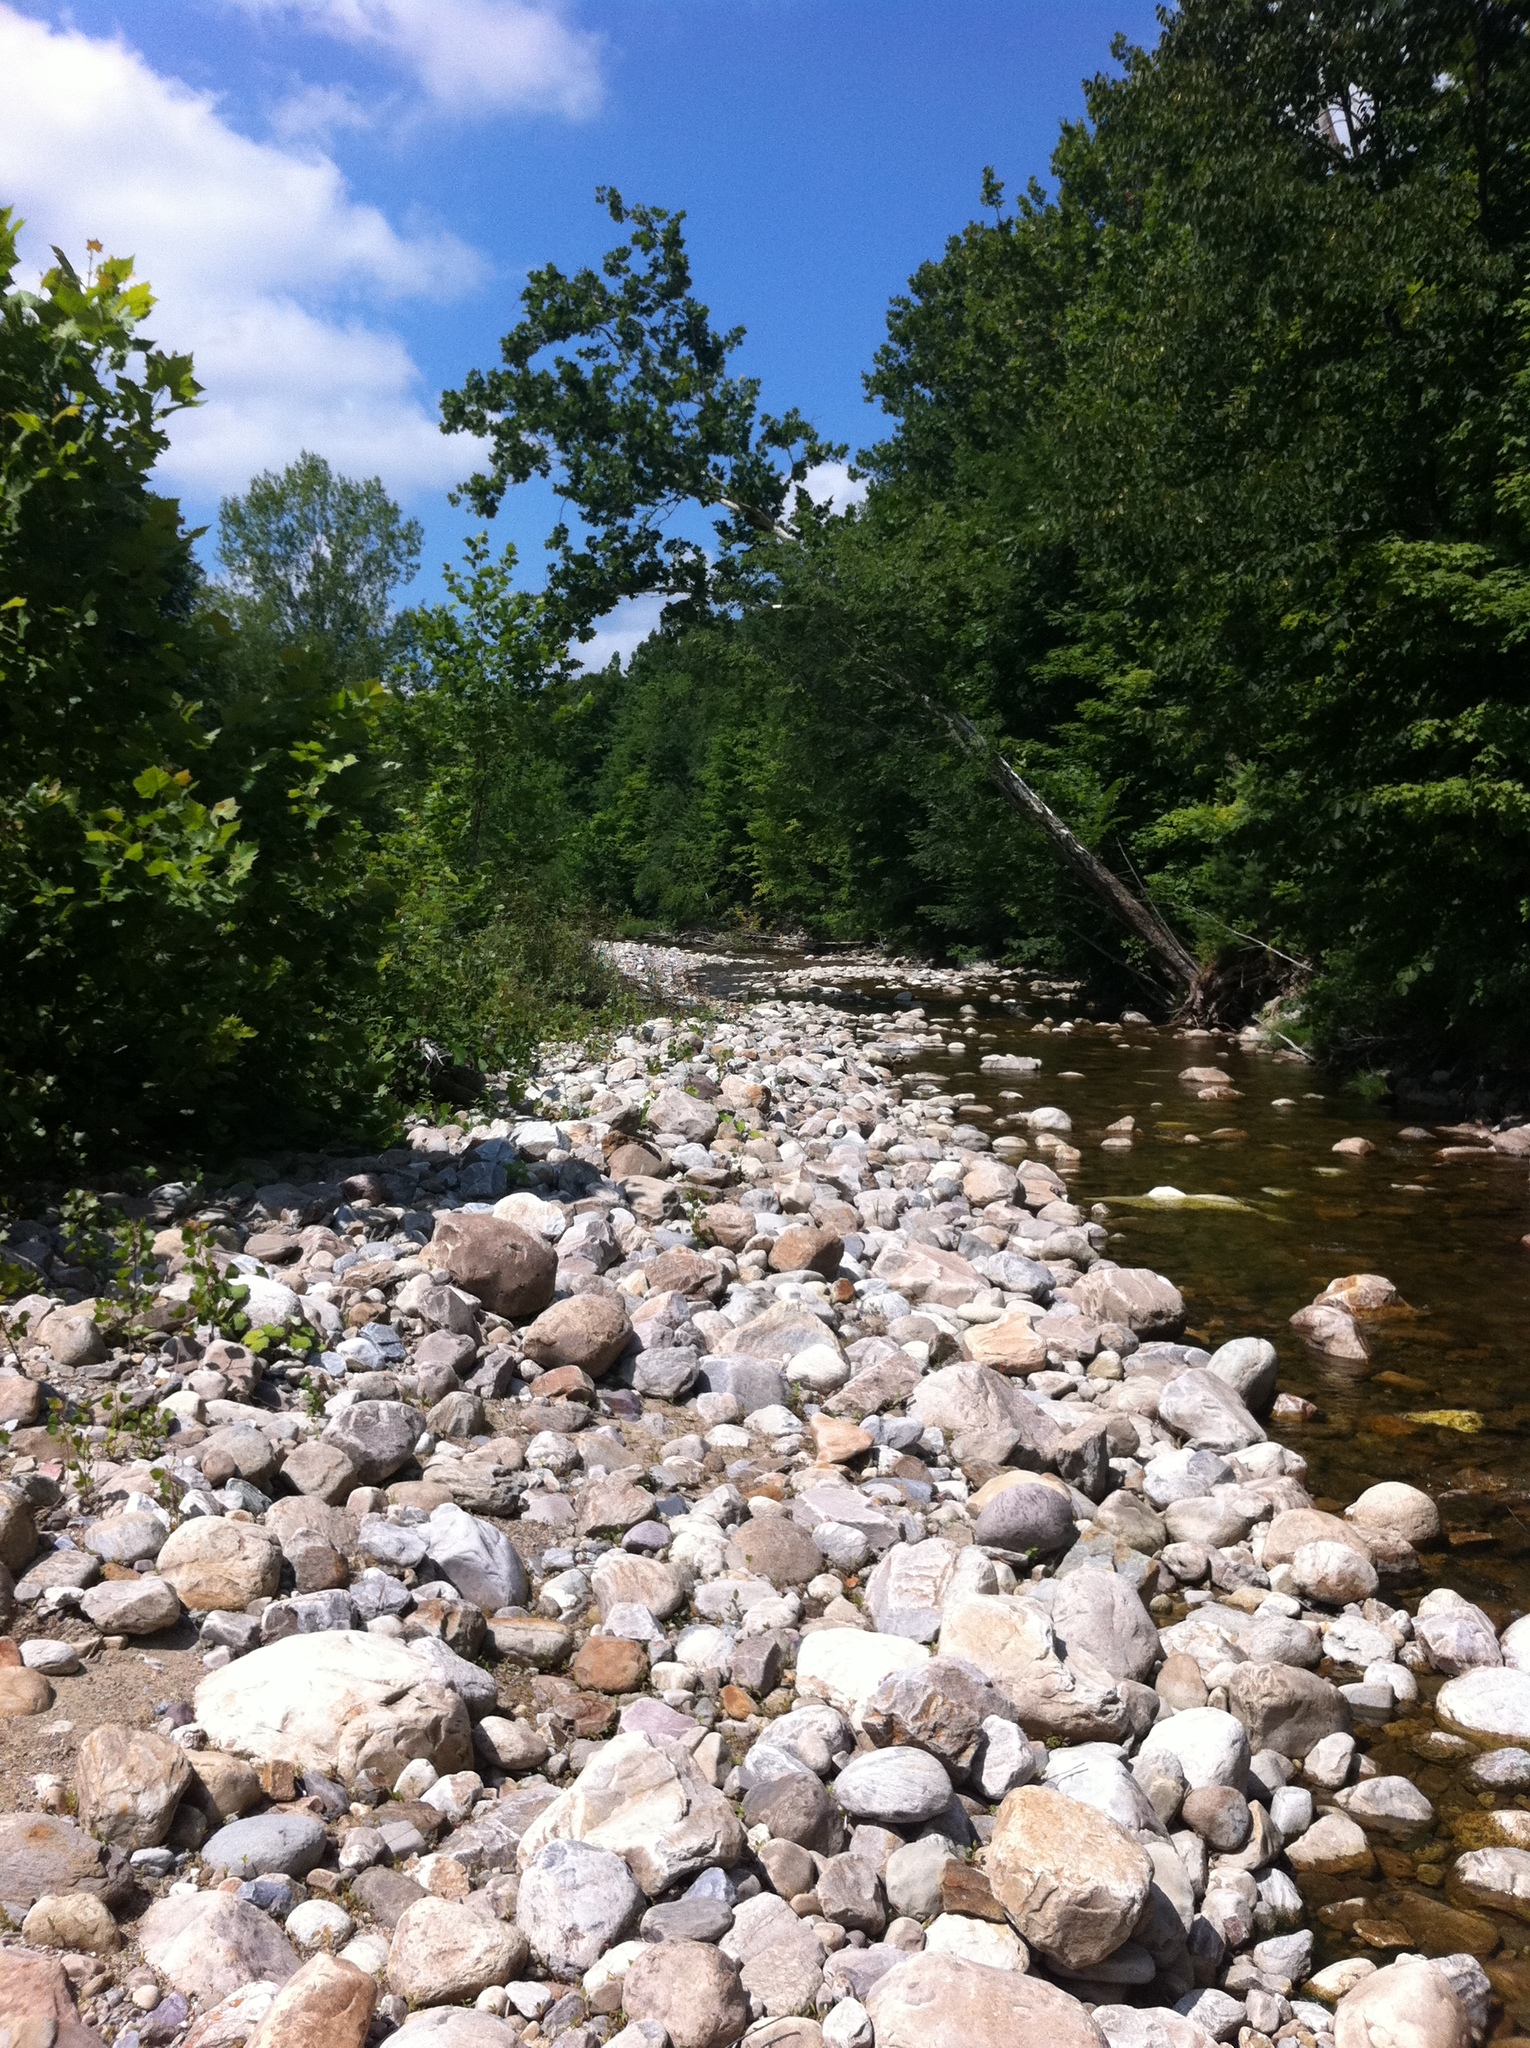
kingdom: Plantae
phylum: Tracheophyta
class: Magnoliopsida
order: Proteales
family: Platanaceae
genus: Platanus
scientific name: Platanus occidentalis
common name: American sycamore
